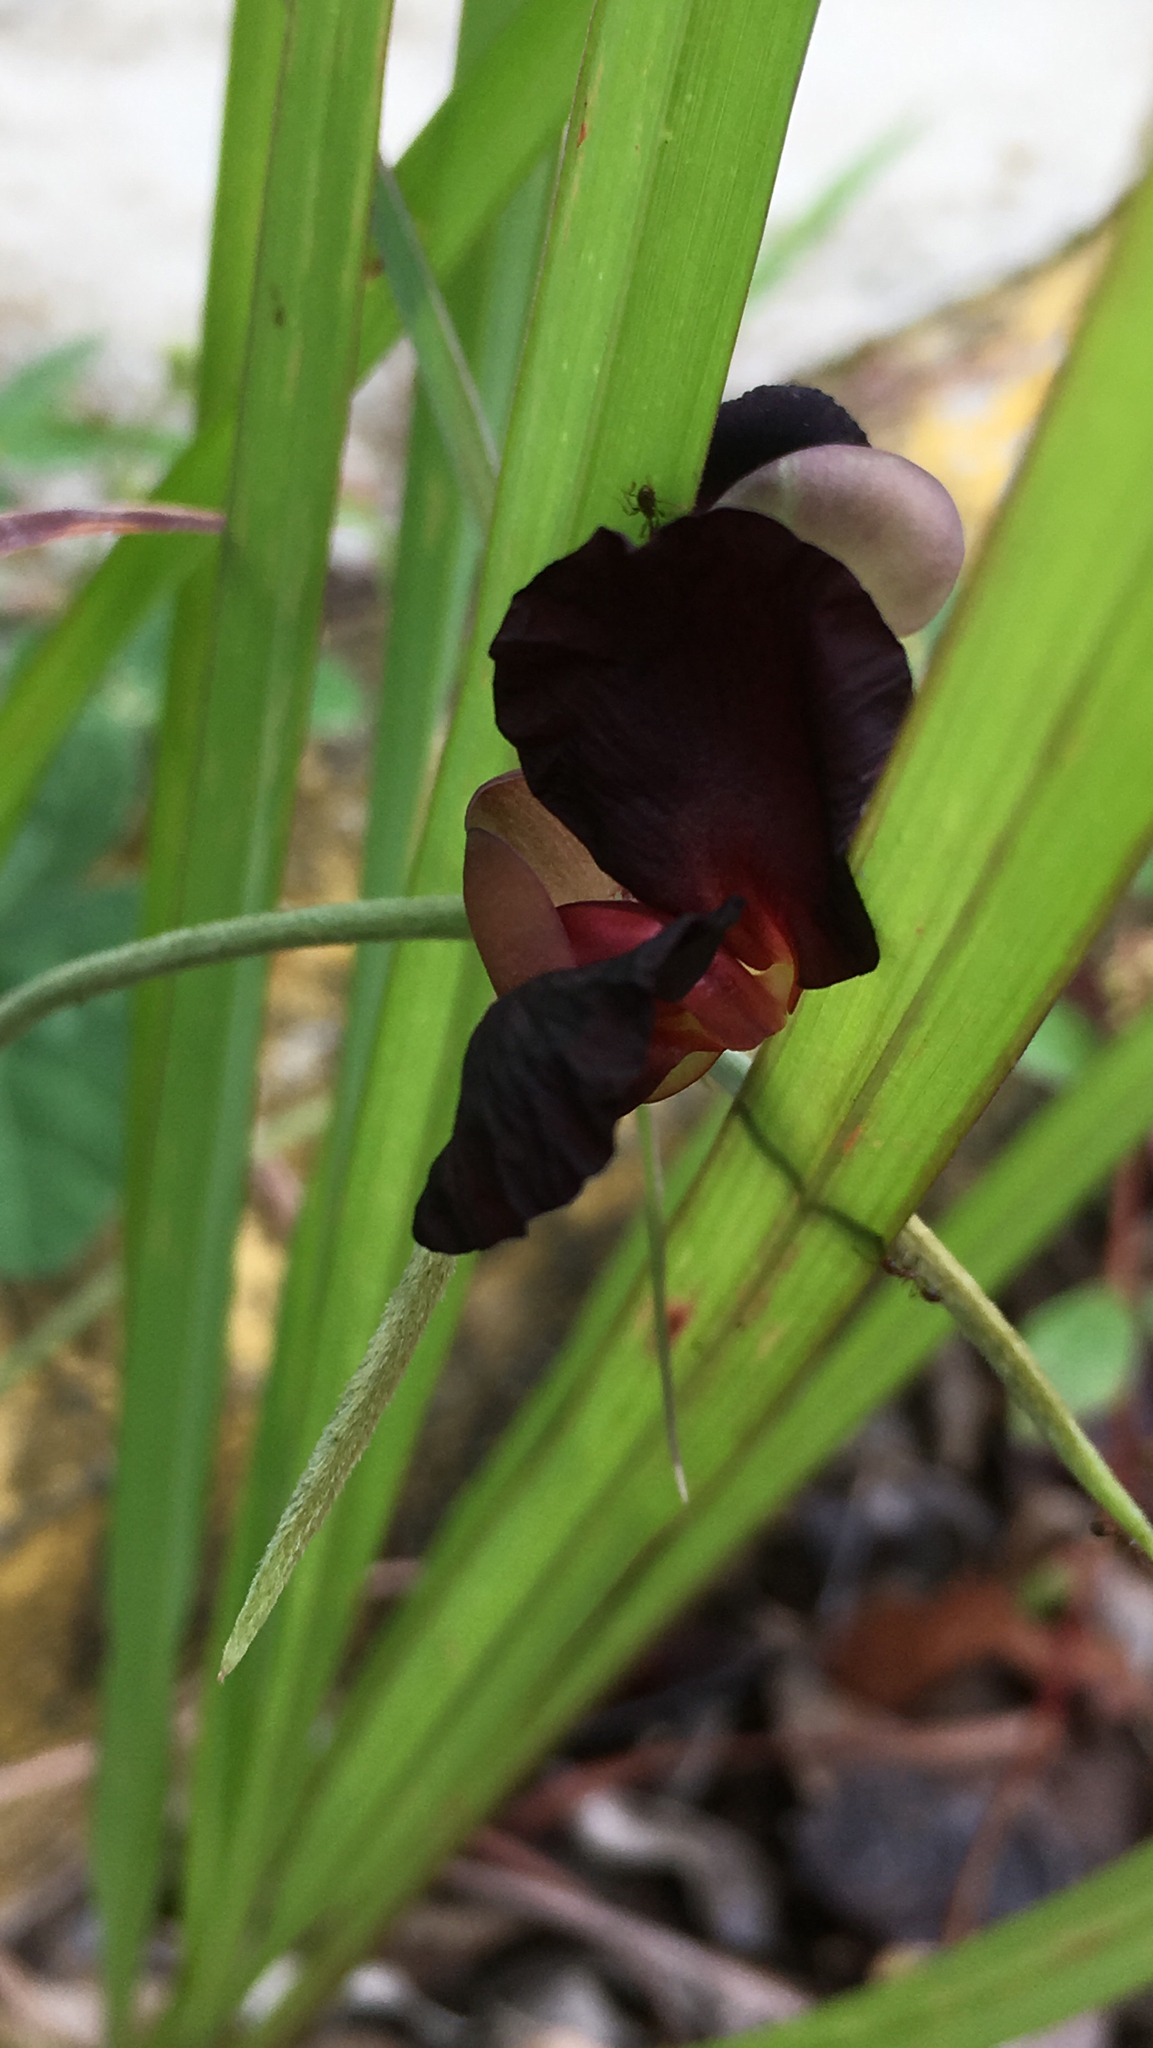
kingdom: Plantae
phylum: Tracheophyta
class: Magnoliopsida
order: Fabales
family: Fabaceae
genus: Macroptilium
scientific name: Macroptilium atropurpureum
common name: Purple bushbean
